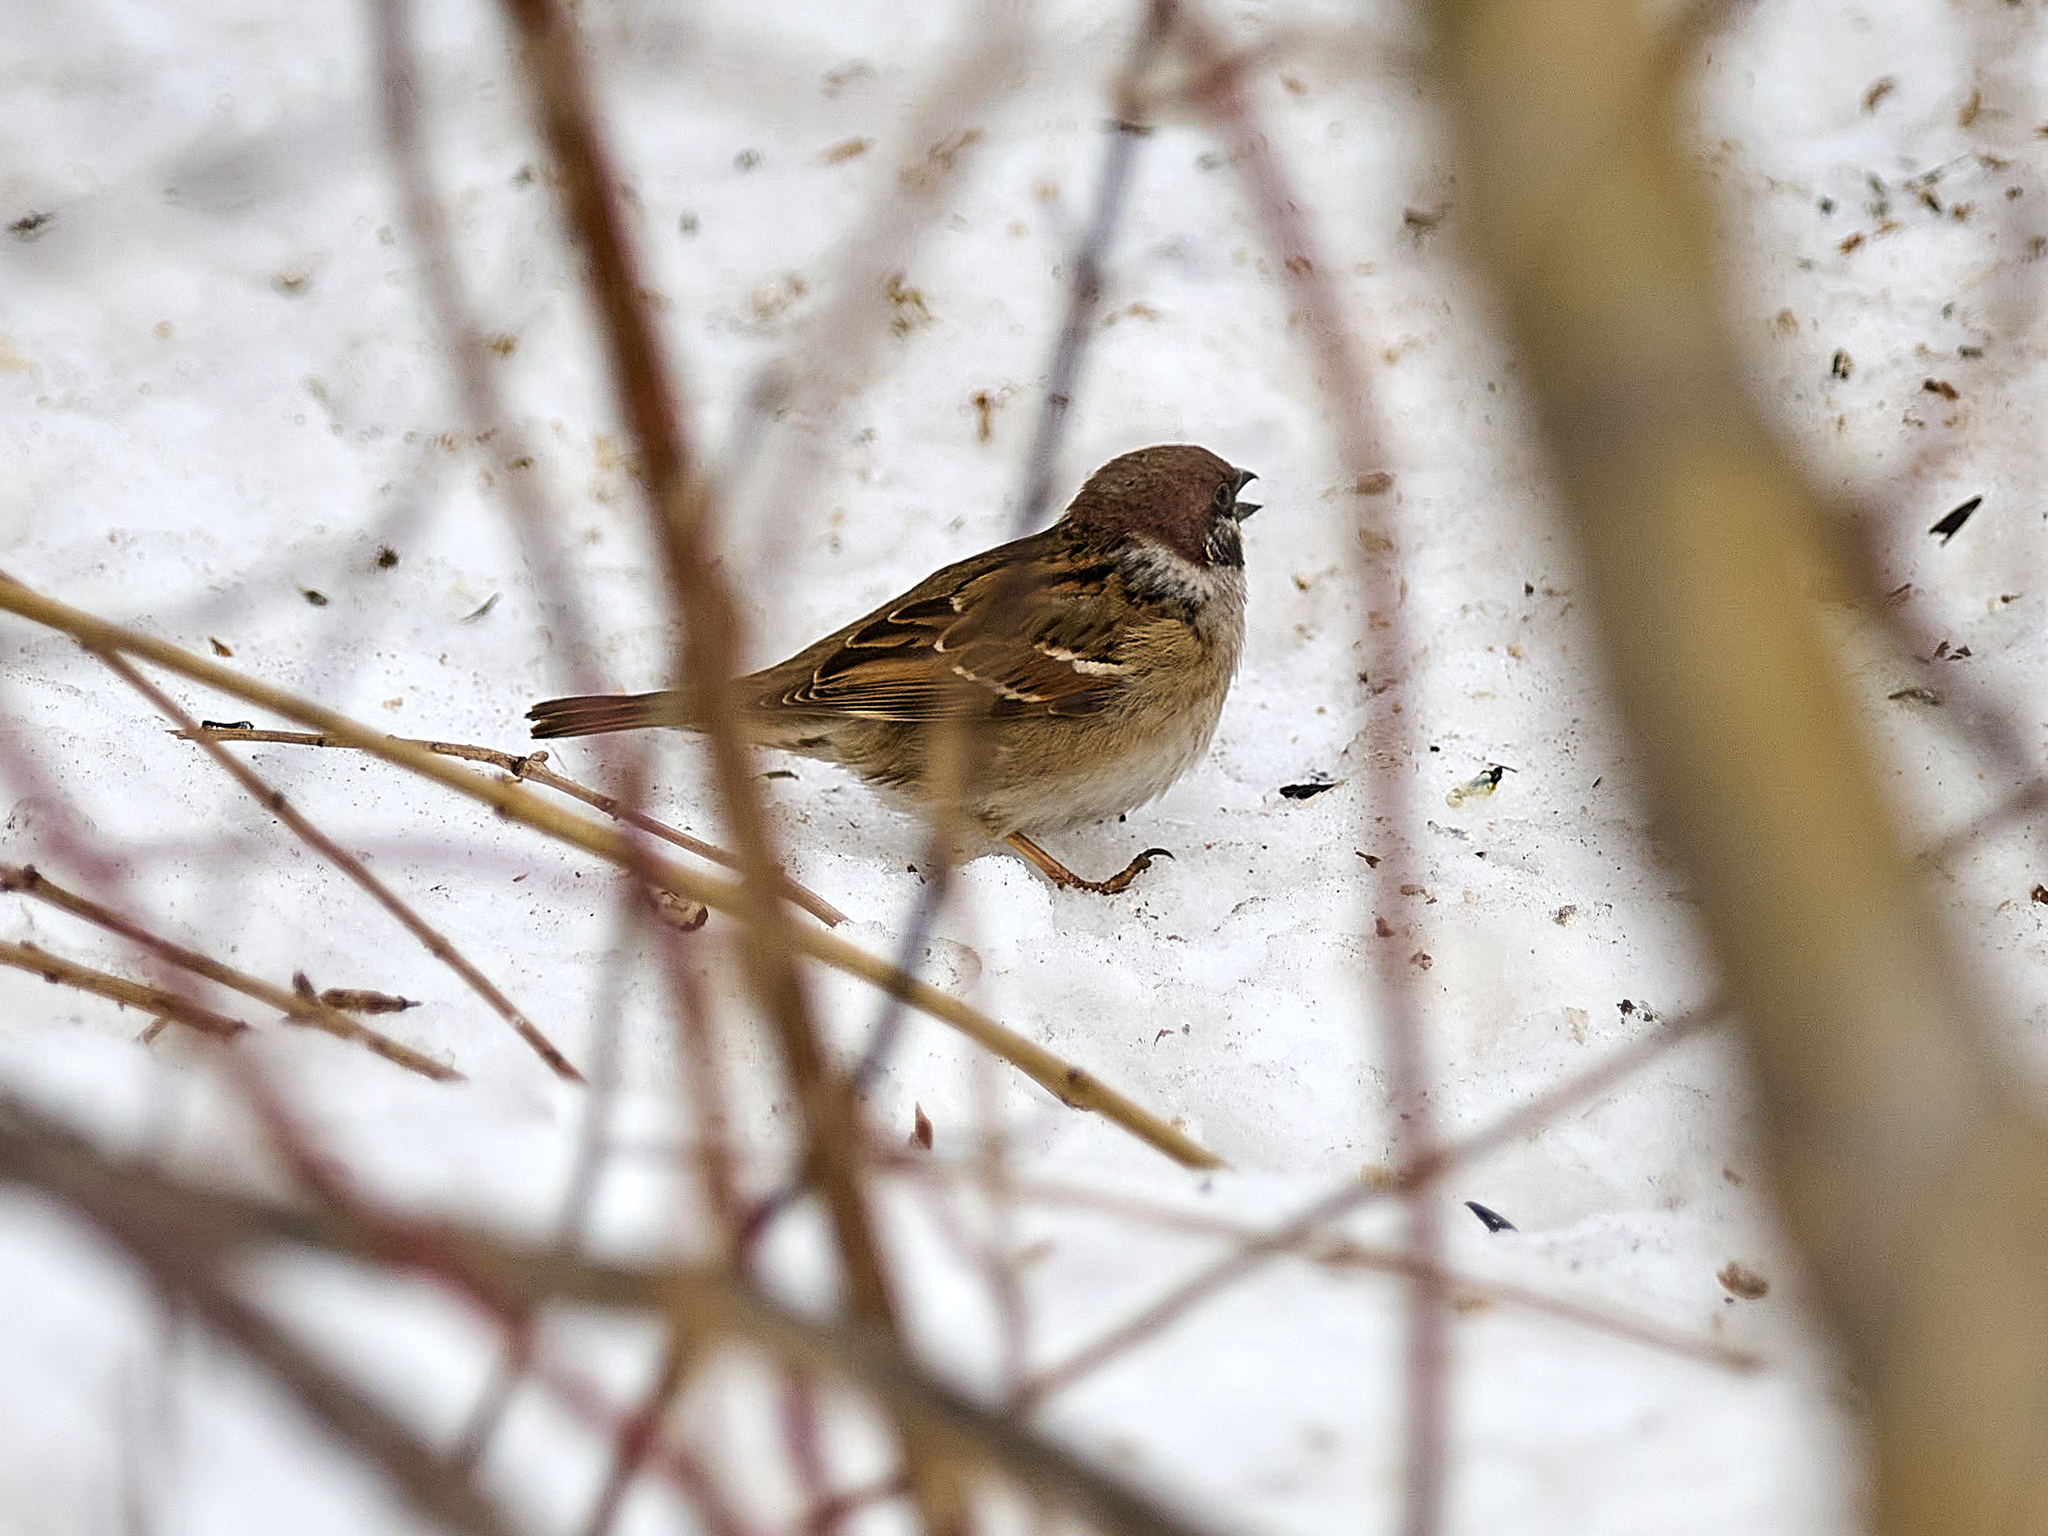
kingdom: Animalia
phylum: Chordata
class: Aves
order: Passeriformes
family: Passeridae
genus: Passer
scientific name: Passer montanus
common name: Eurasian tree sparrow
